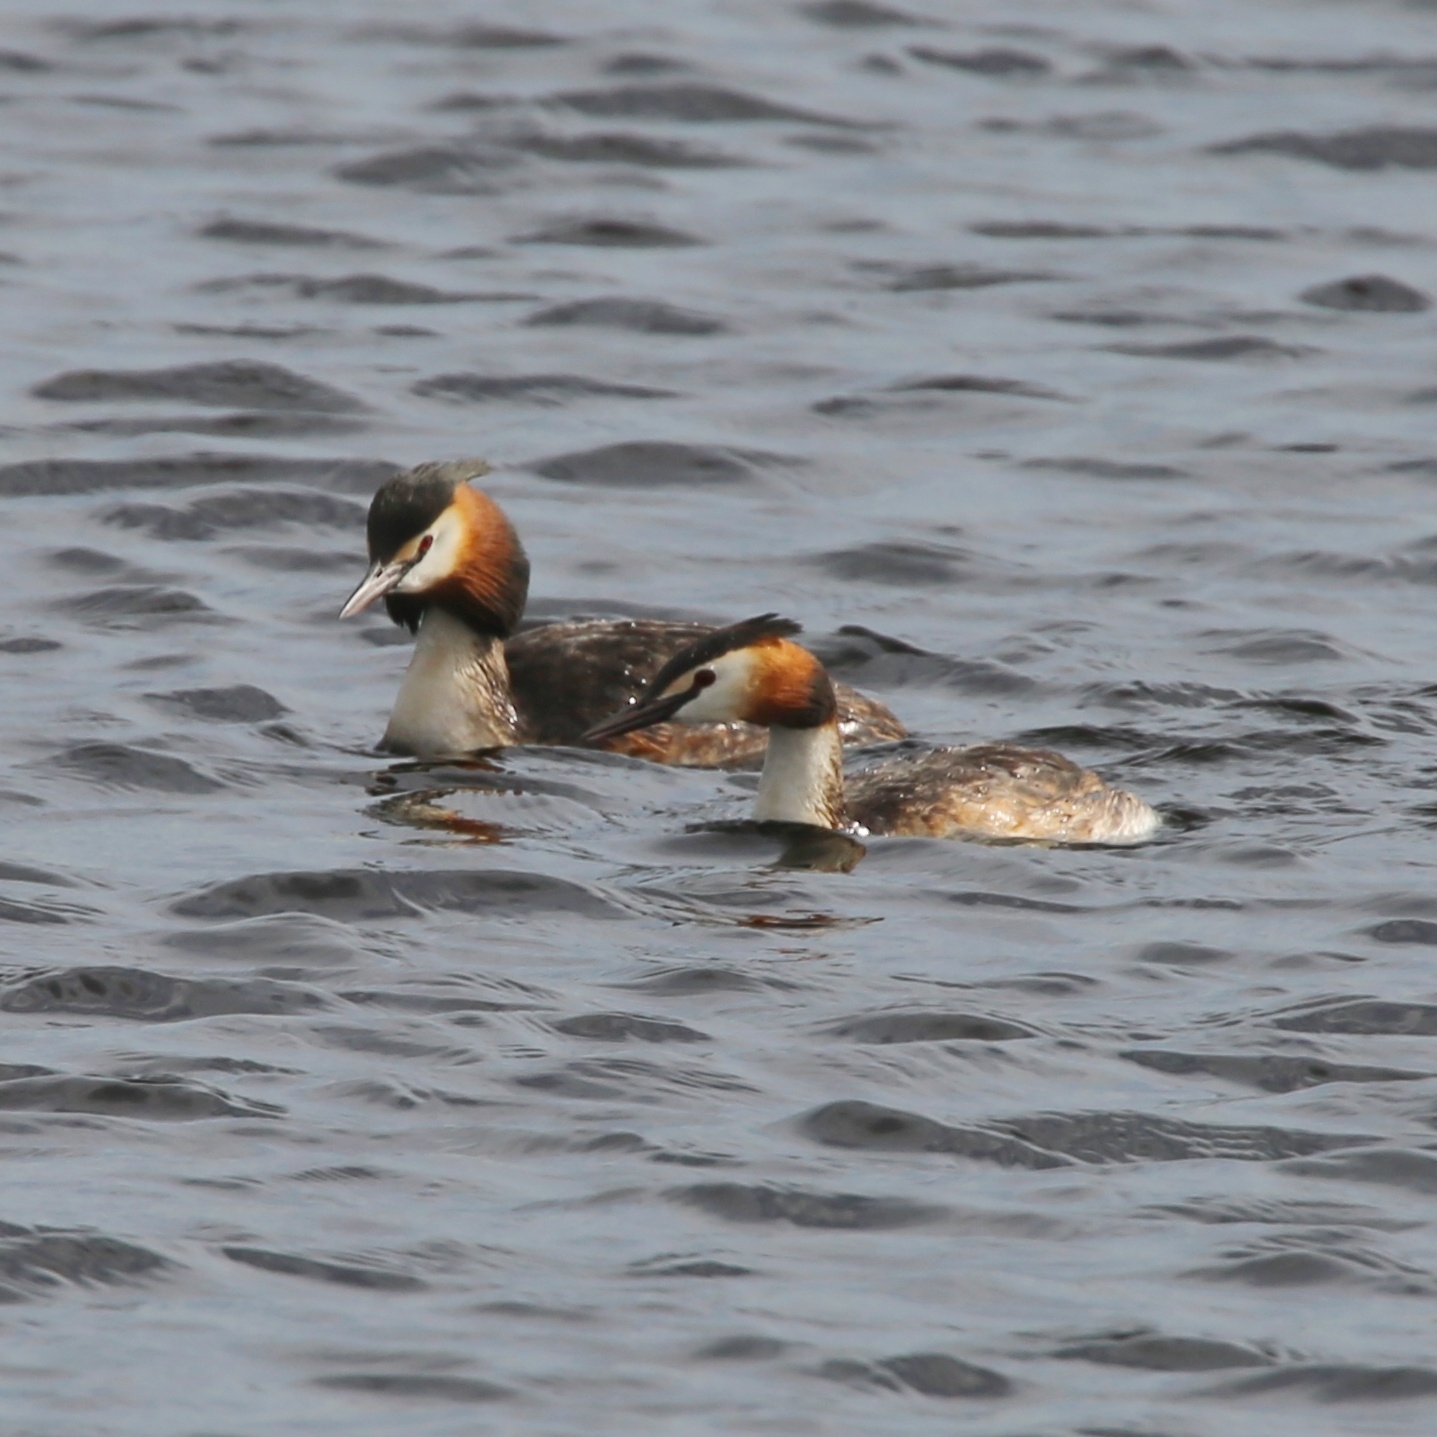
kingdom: Animalia
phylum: Chordata
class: Aves
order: Podicipediformes
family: Podicipedidae
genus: Podiceps
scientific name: Podiceps cristatus
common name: Great crested grebe
